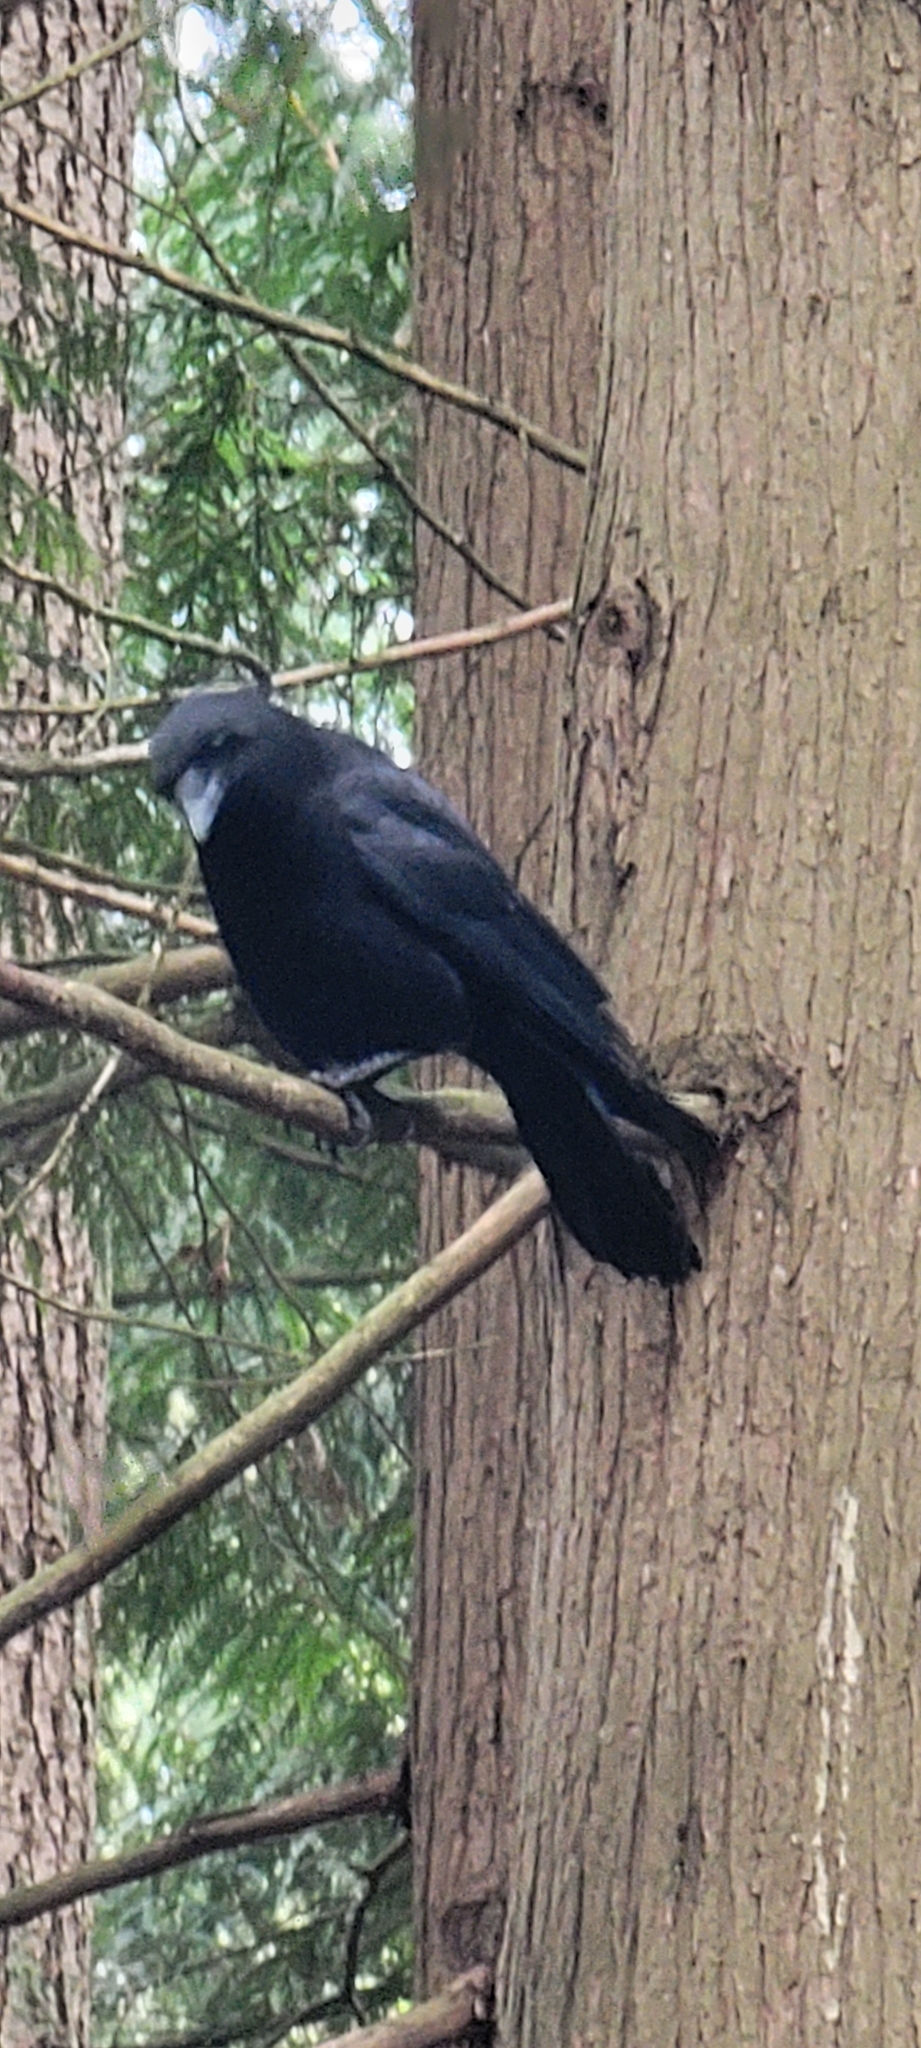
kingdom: Animalia
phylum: Chordata
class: Aves
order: Passeriformes
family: Corvidae
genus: Corvus
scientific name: Corvus brachyrhynchos
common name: American crow
